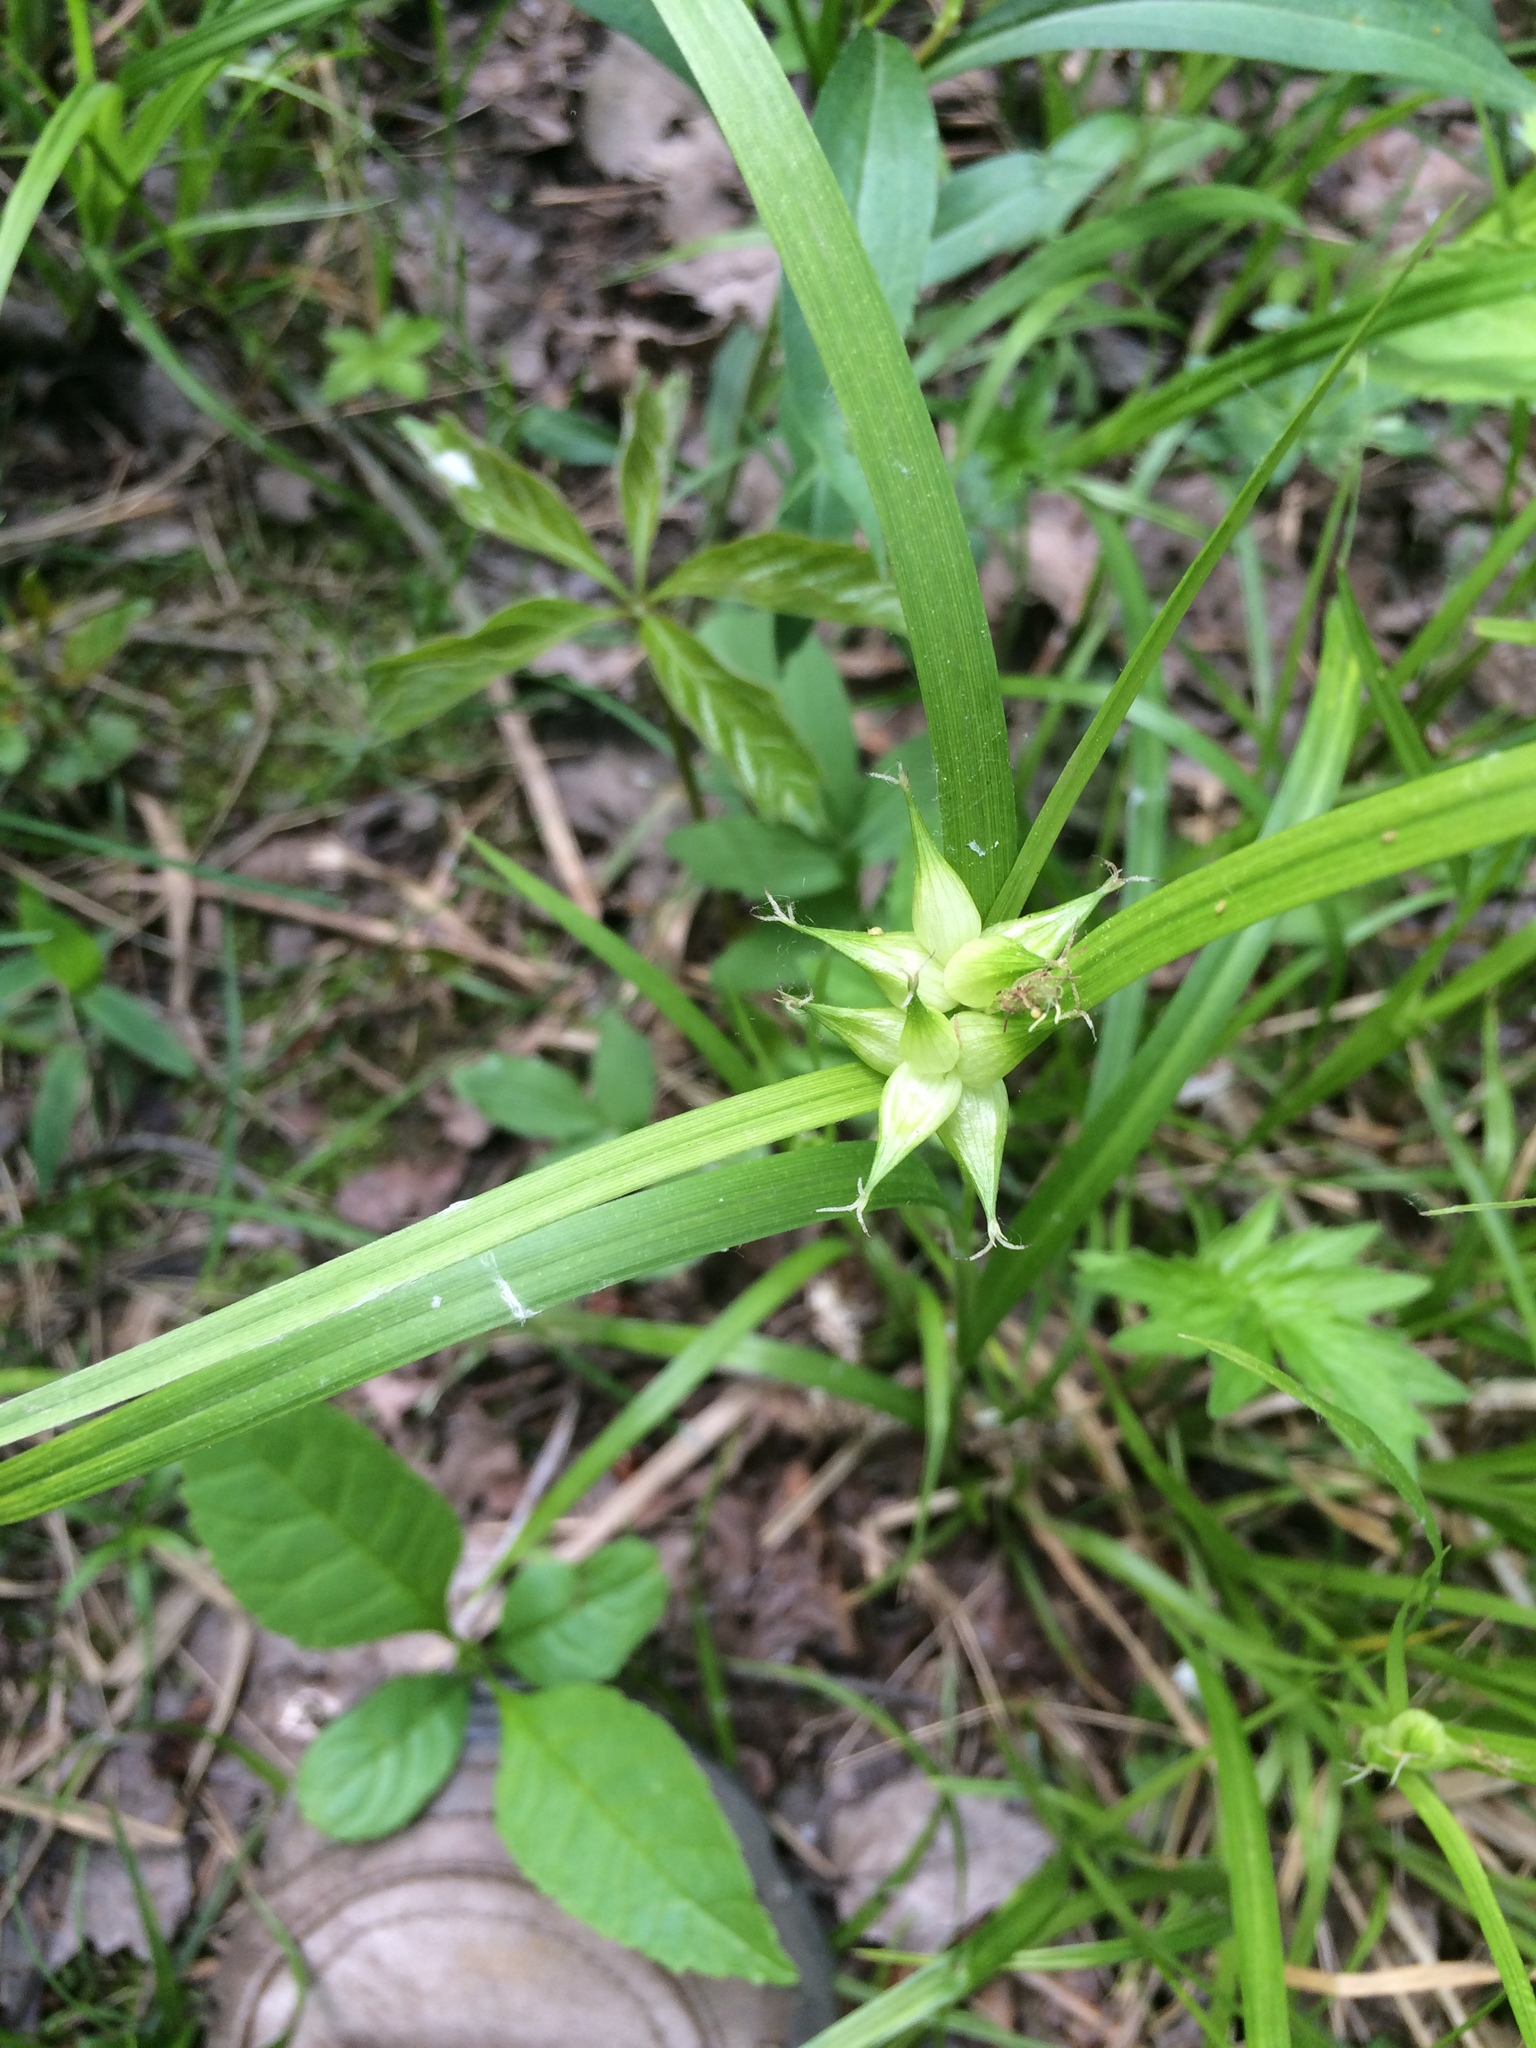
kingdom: Plantae
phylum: Tracheophyta
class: Liliopsida
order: Poales
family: Cyperaceae
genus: Carex
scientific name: Carex intumescens
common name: Greater bladder sedge
